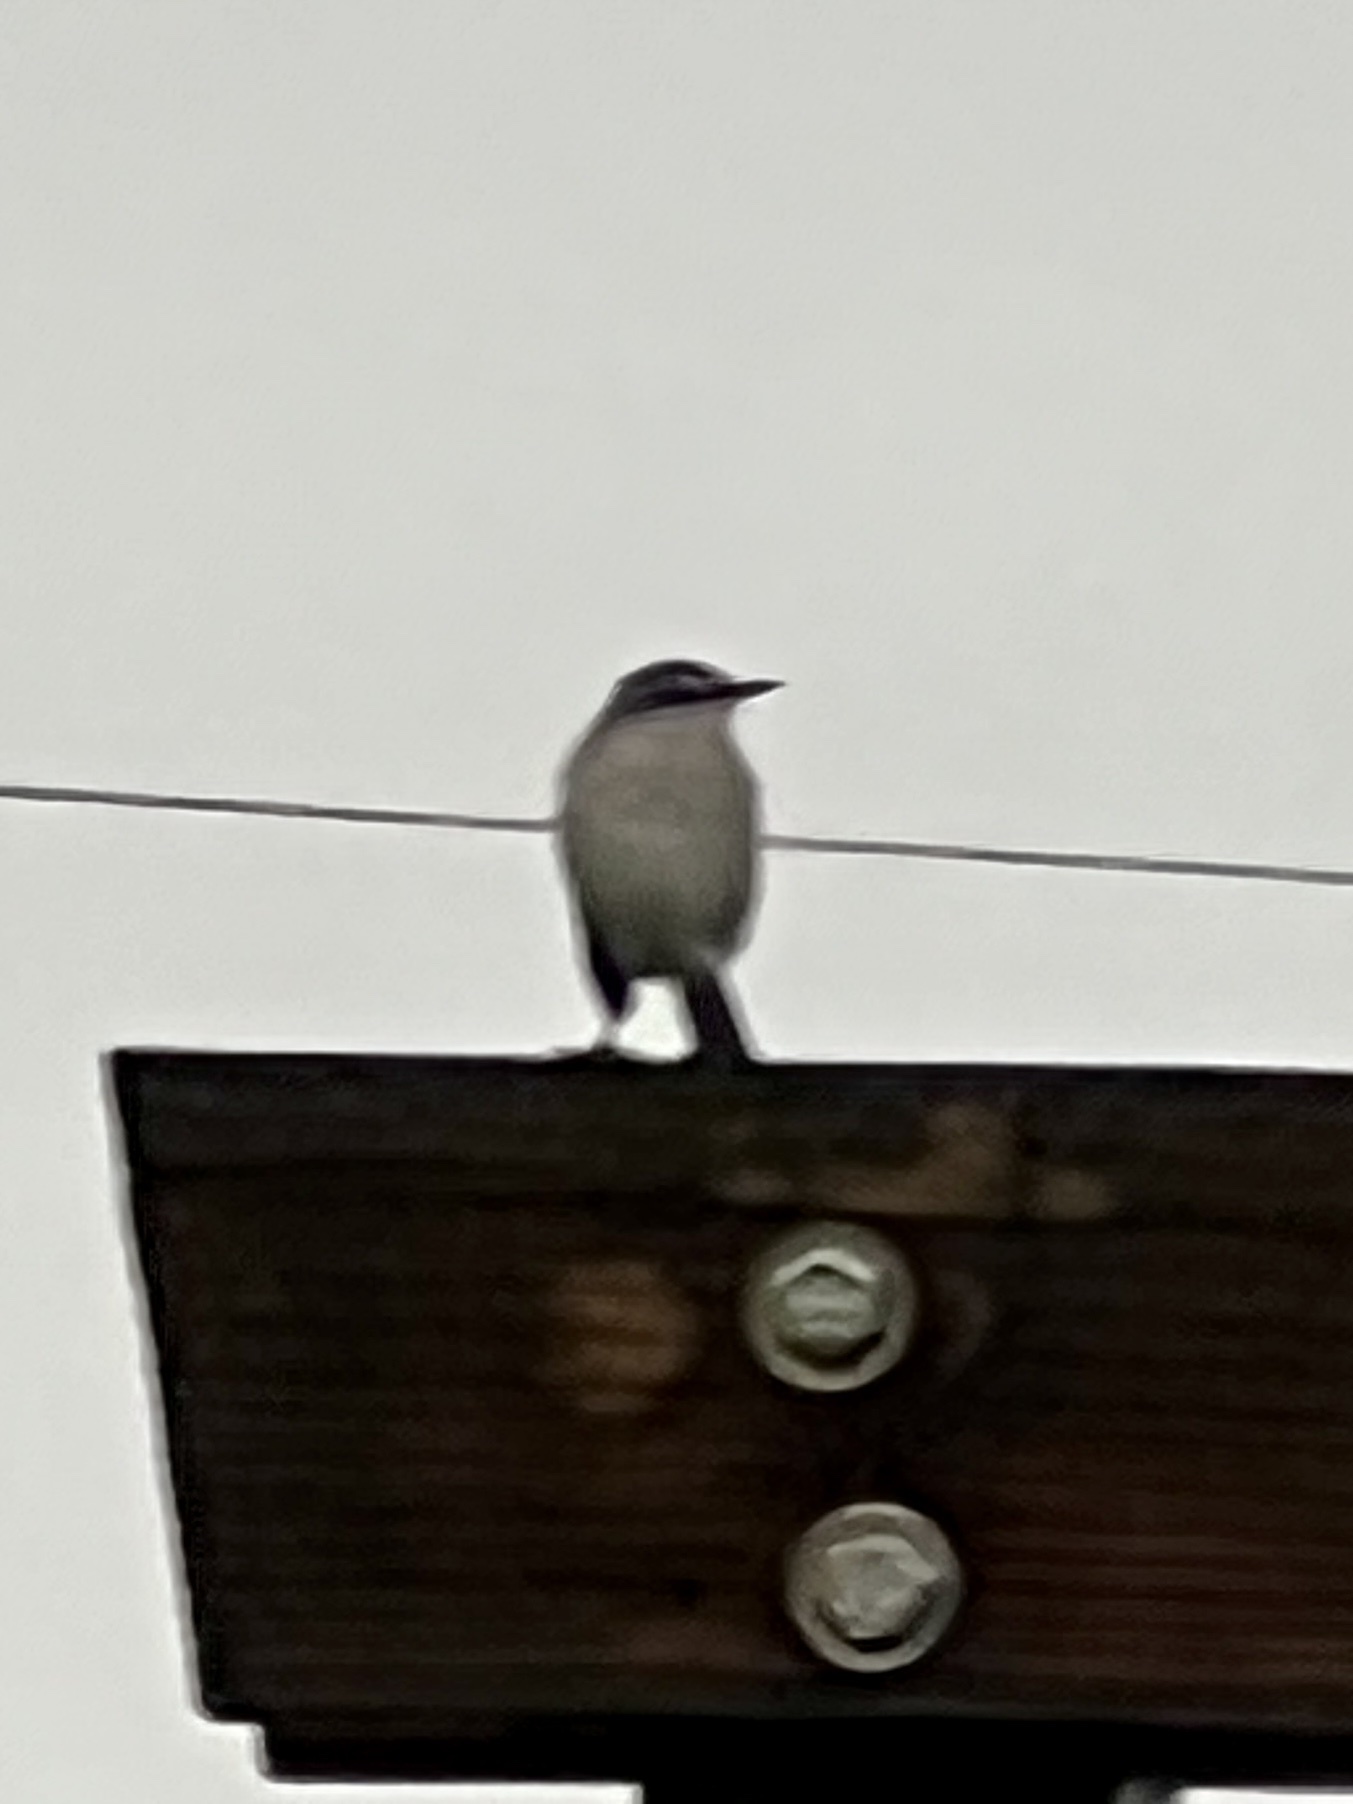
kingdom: Animalia
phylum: Chordata
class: Aves
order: Passeriformes
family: Mimidae
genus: Mimus
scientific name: Mimus polyglottos
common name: Northern mockingbird
